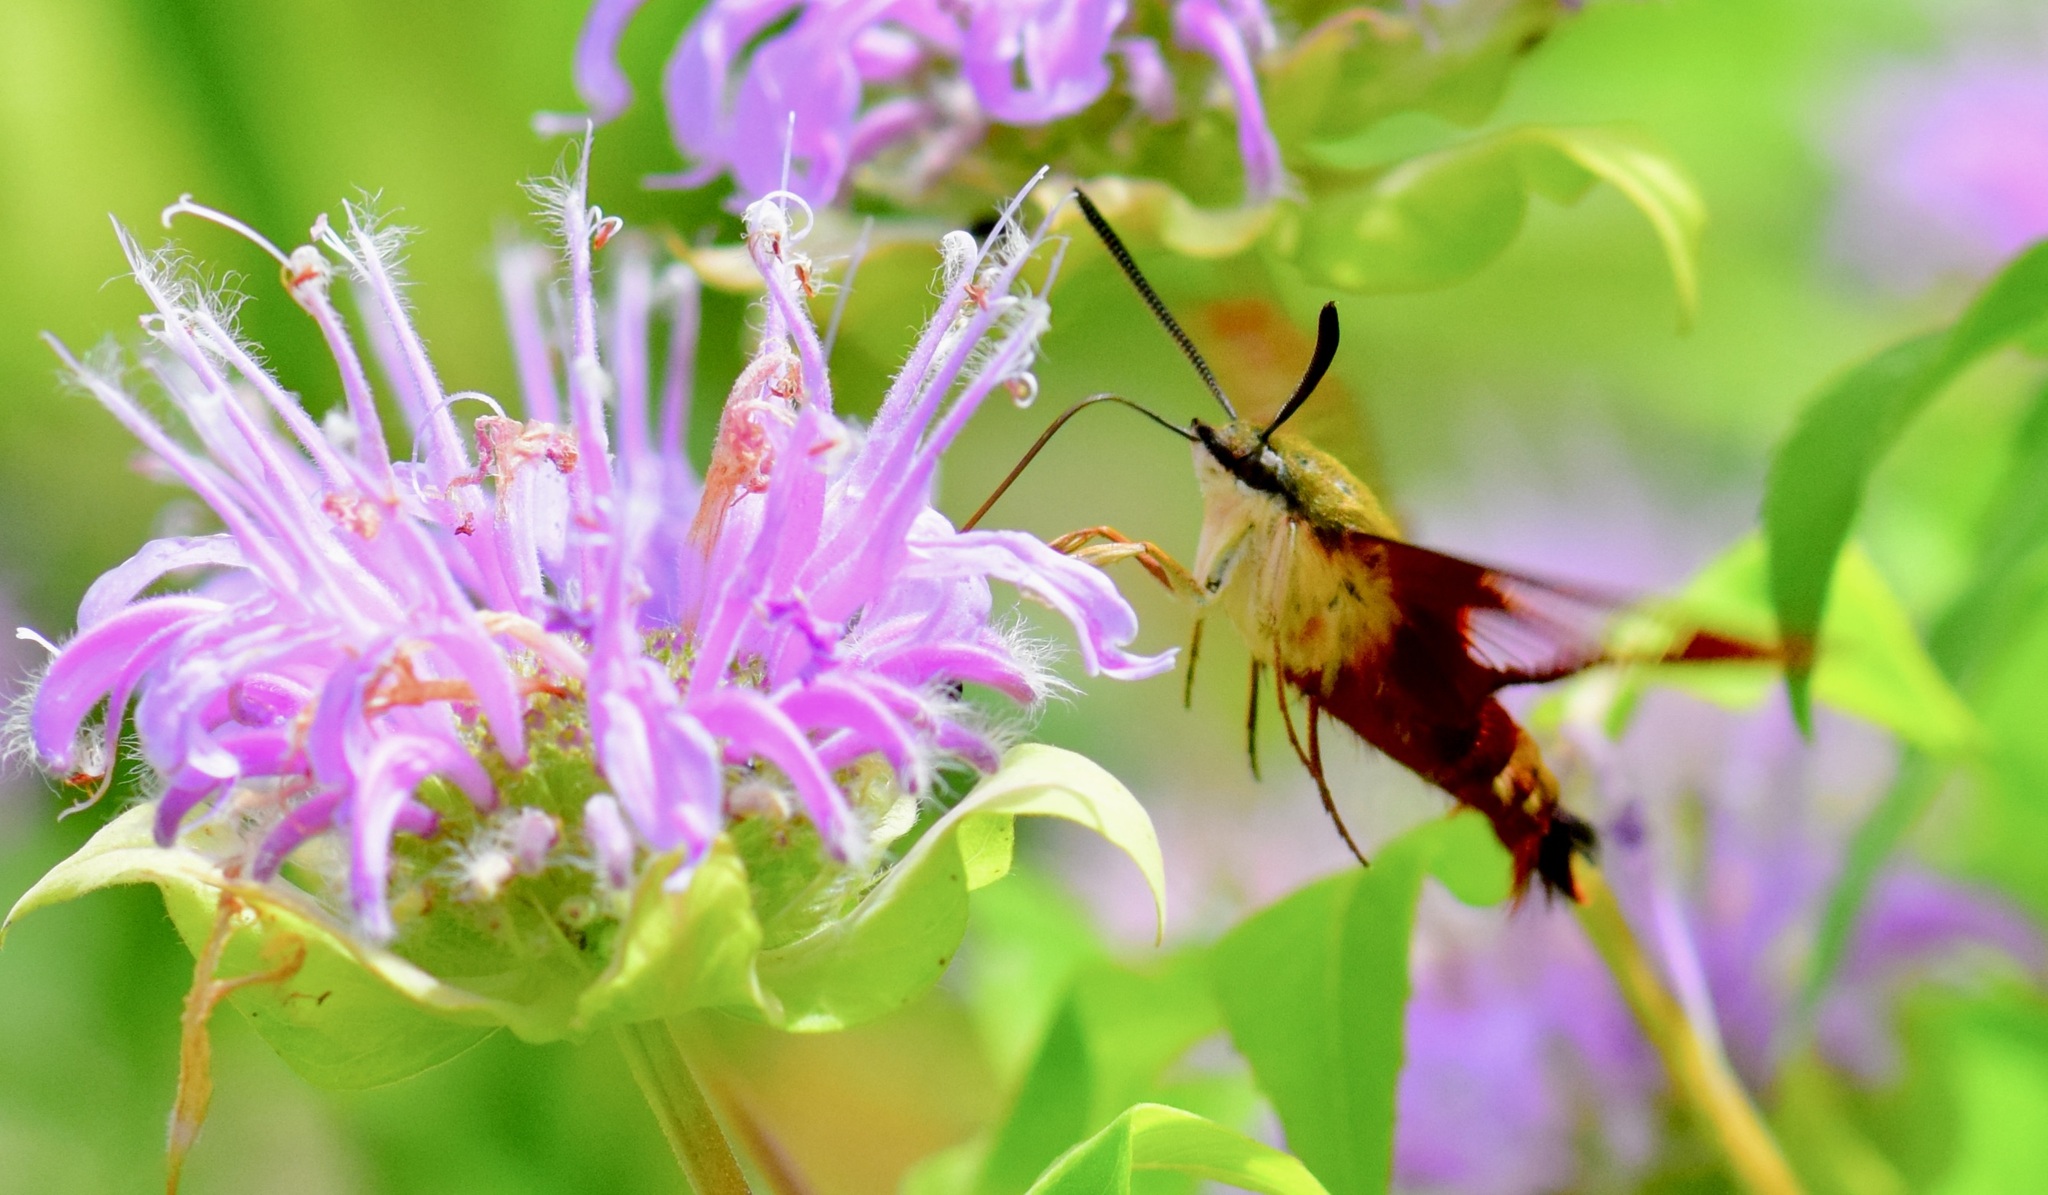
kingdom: Animalia
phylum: Arthropoda
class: Insecta
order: Lepidoptera
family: Sphingidae
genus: Hemaris
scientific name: Hemaris thysbe
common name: Common clear-wing
